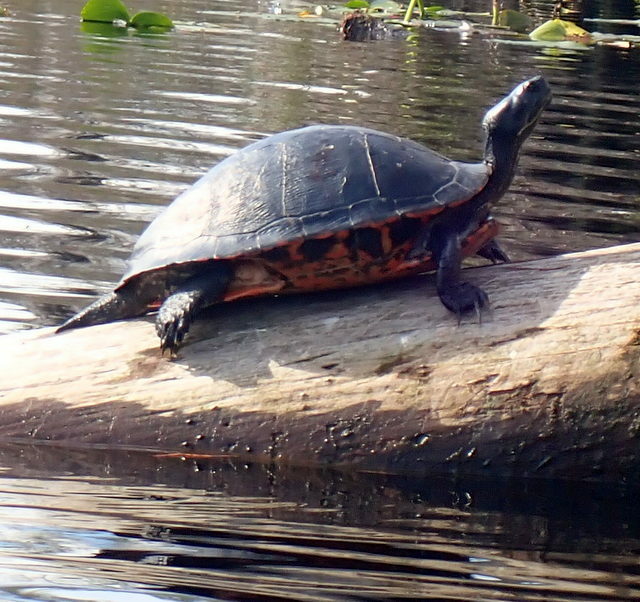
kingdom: Animalia
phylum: Chordata
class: Testudines
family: Emydidae
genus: Pseudemys
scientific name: Pseudemys nelsoni
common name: Florida red-bellied turtle
